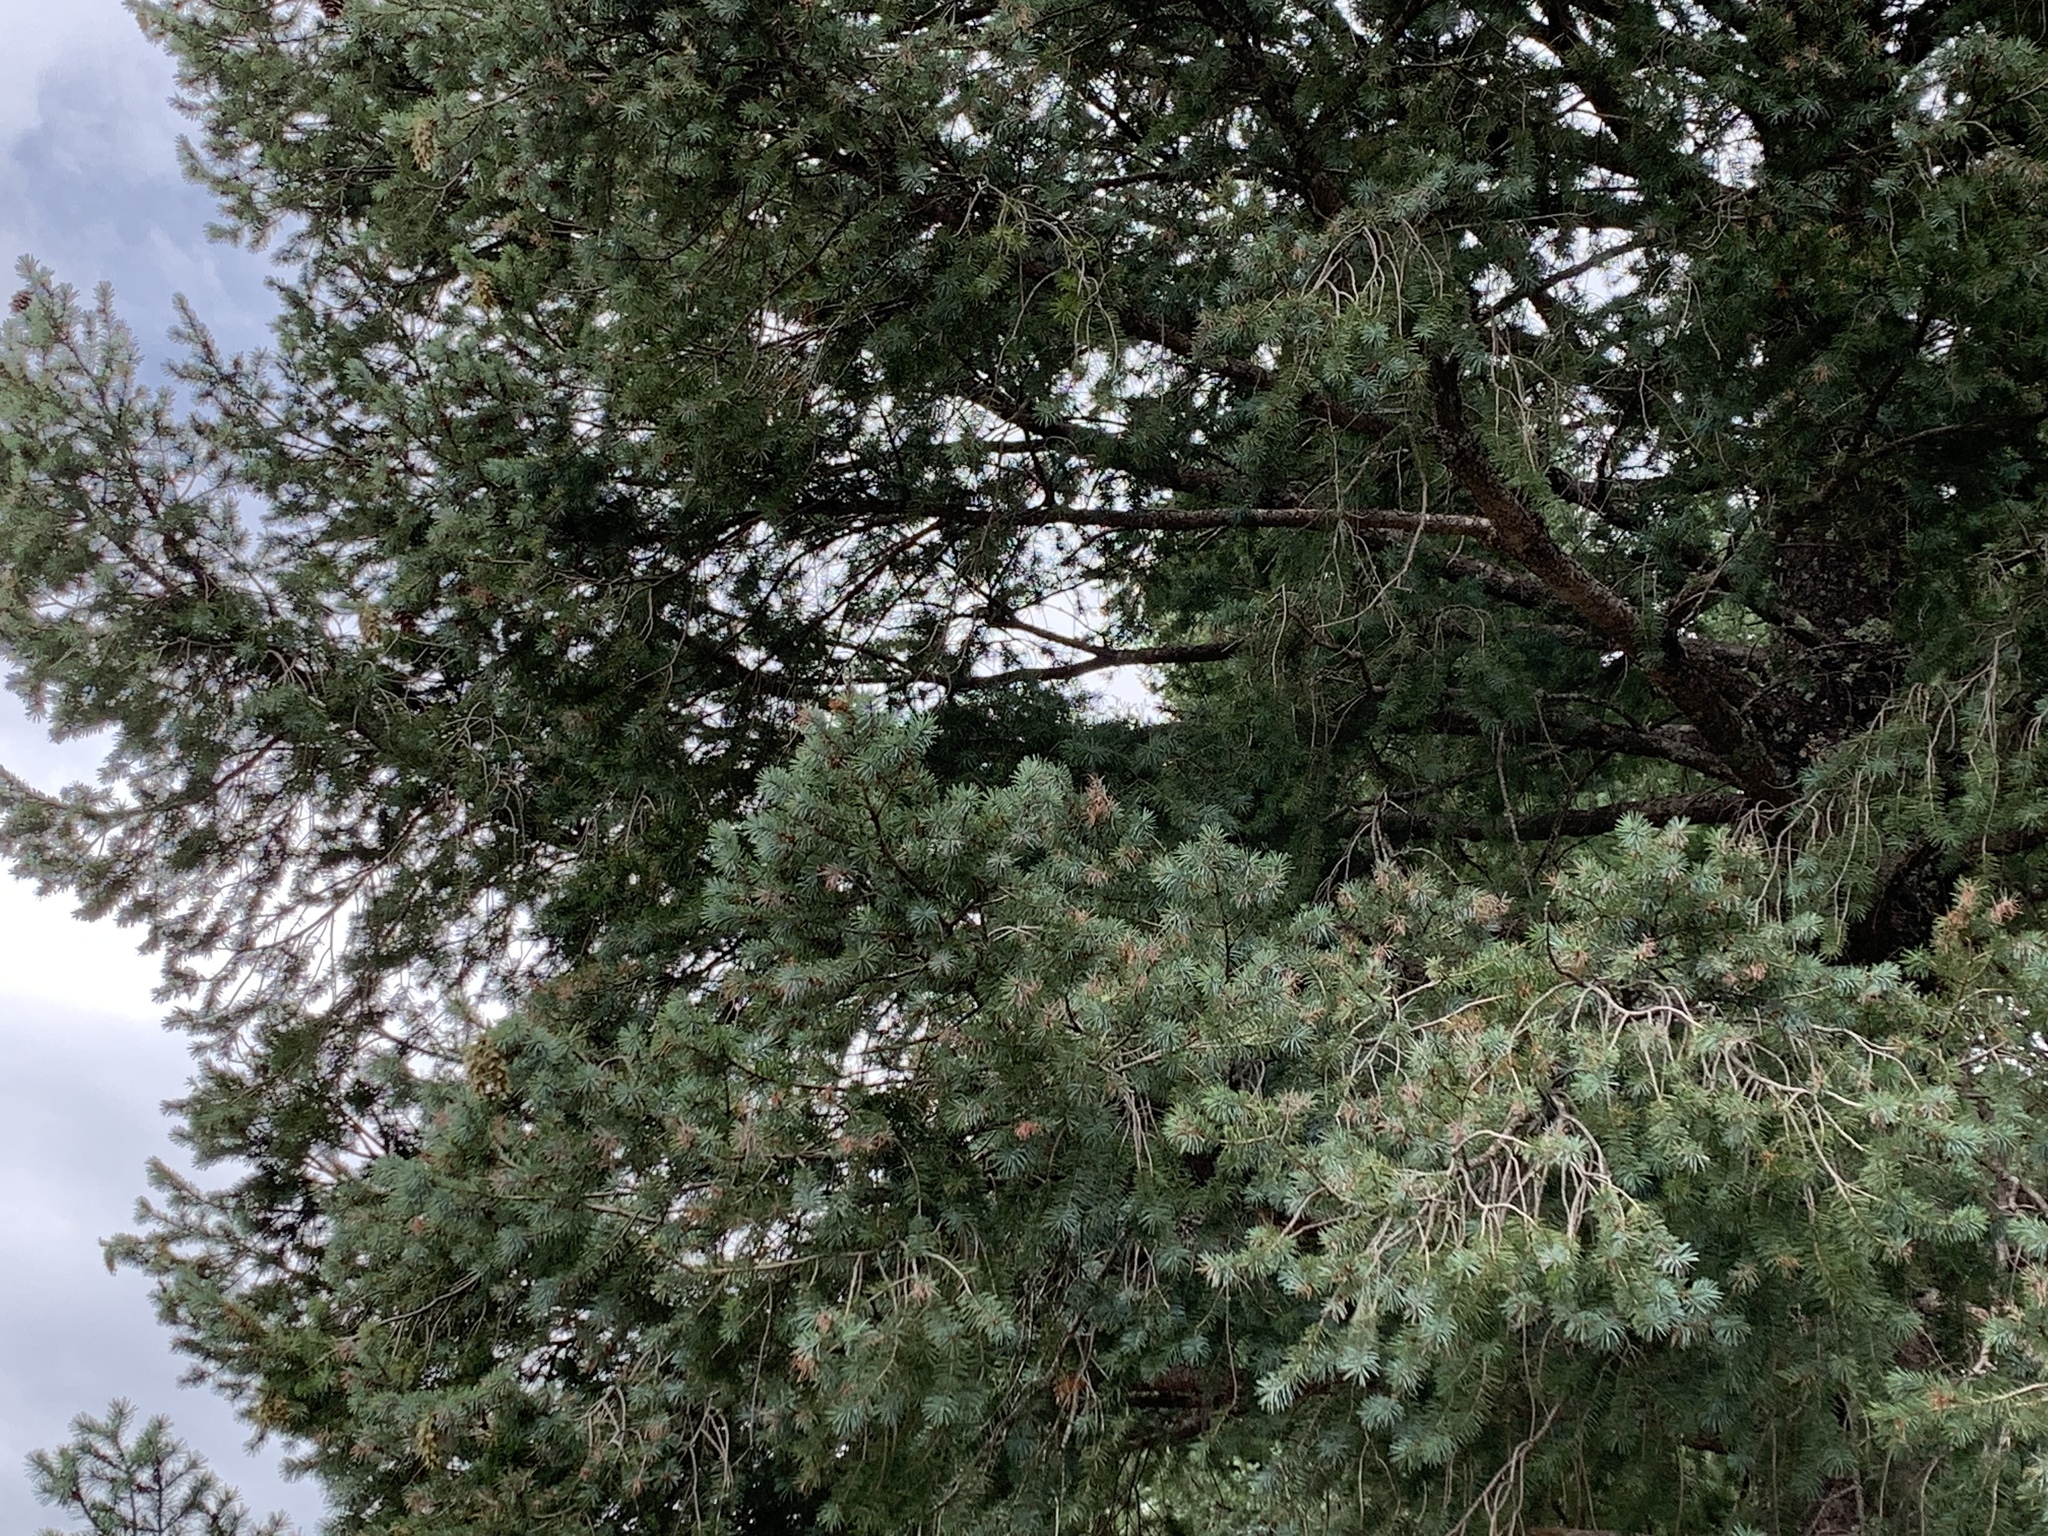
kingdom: Plantae
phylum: Tracheophyta
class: Pinopsida
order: Pinales
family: Pinaceae
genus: Pseudotsuga
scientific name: Pseudotsuga menziesii
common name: Douglas fir
